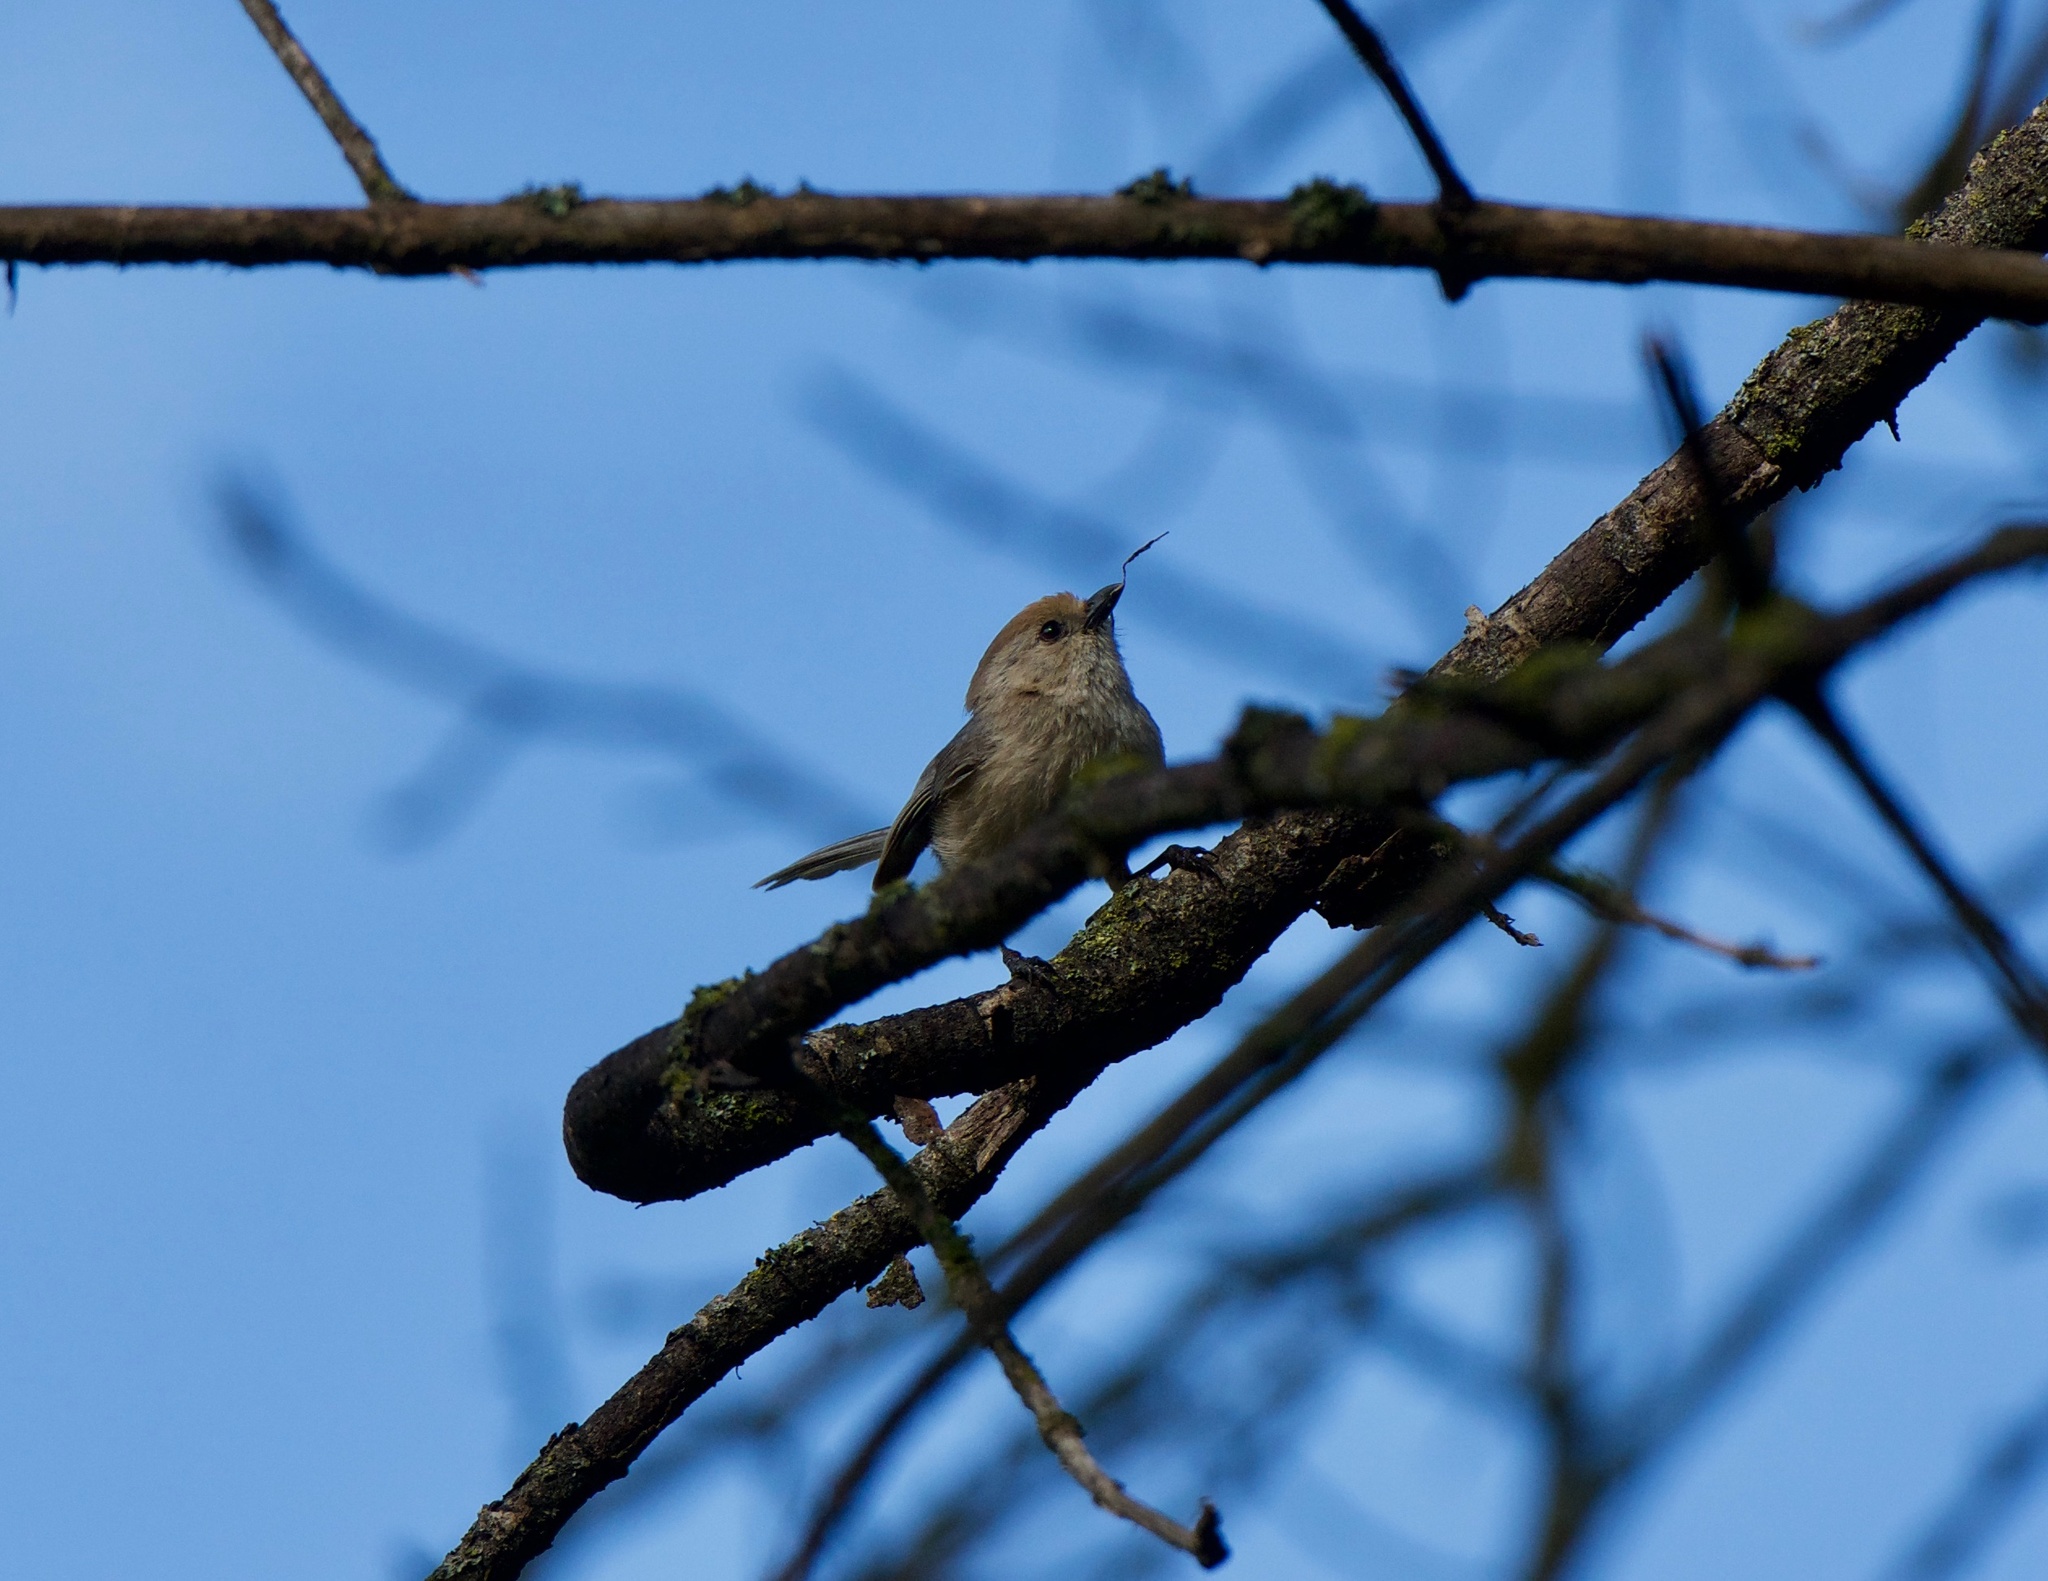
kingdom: Animalia
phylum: Chordata
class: Aves
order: Passeriformes
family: Aegithalidae
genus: Psaltriparus
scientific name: Psaltriparus minimus
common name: American bushtit
